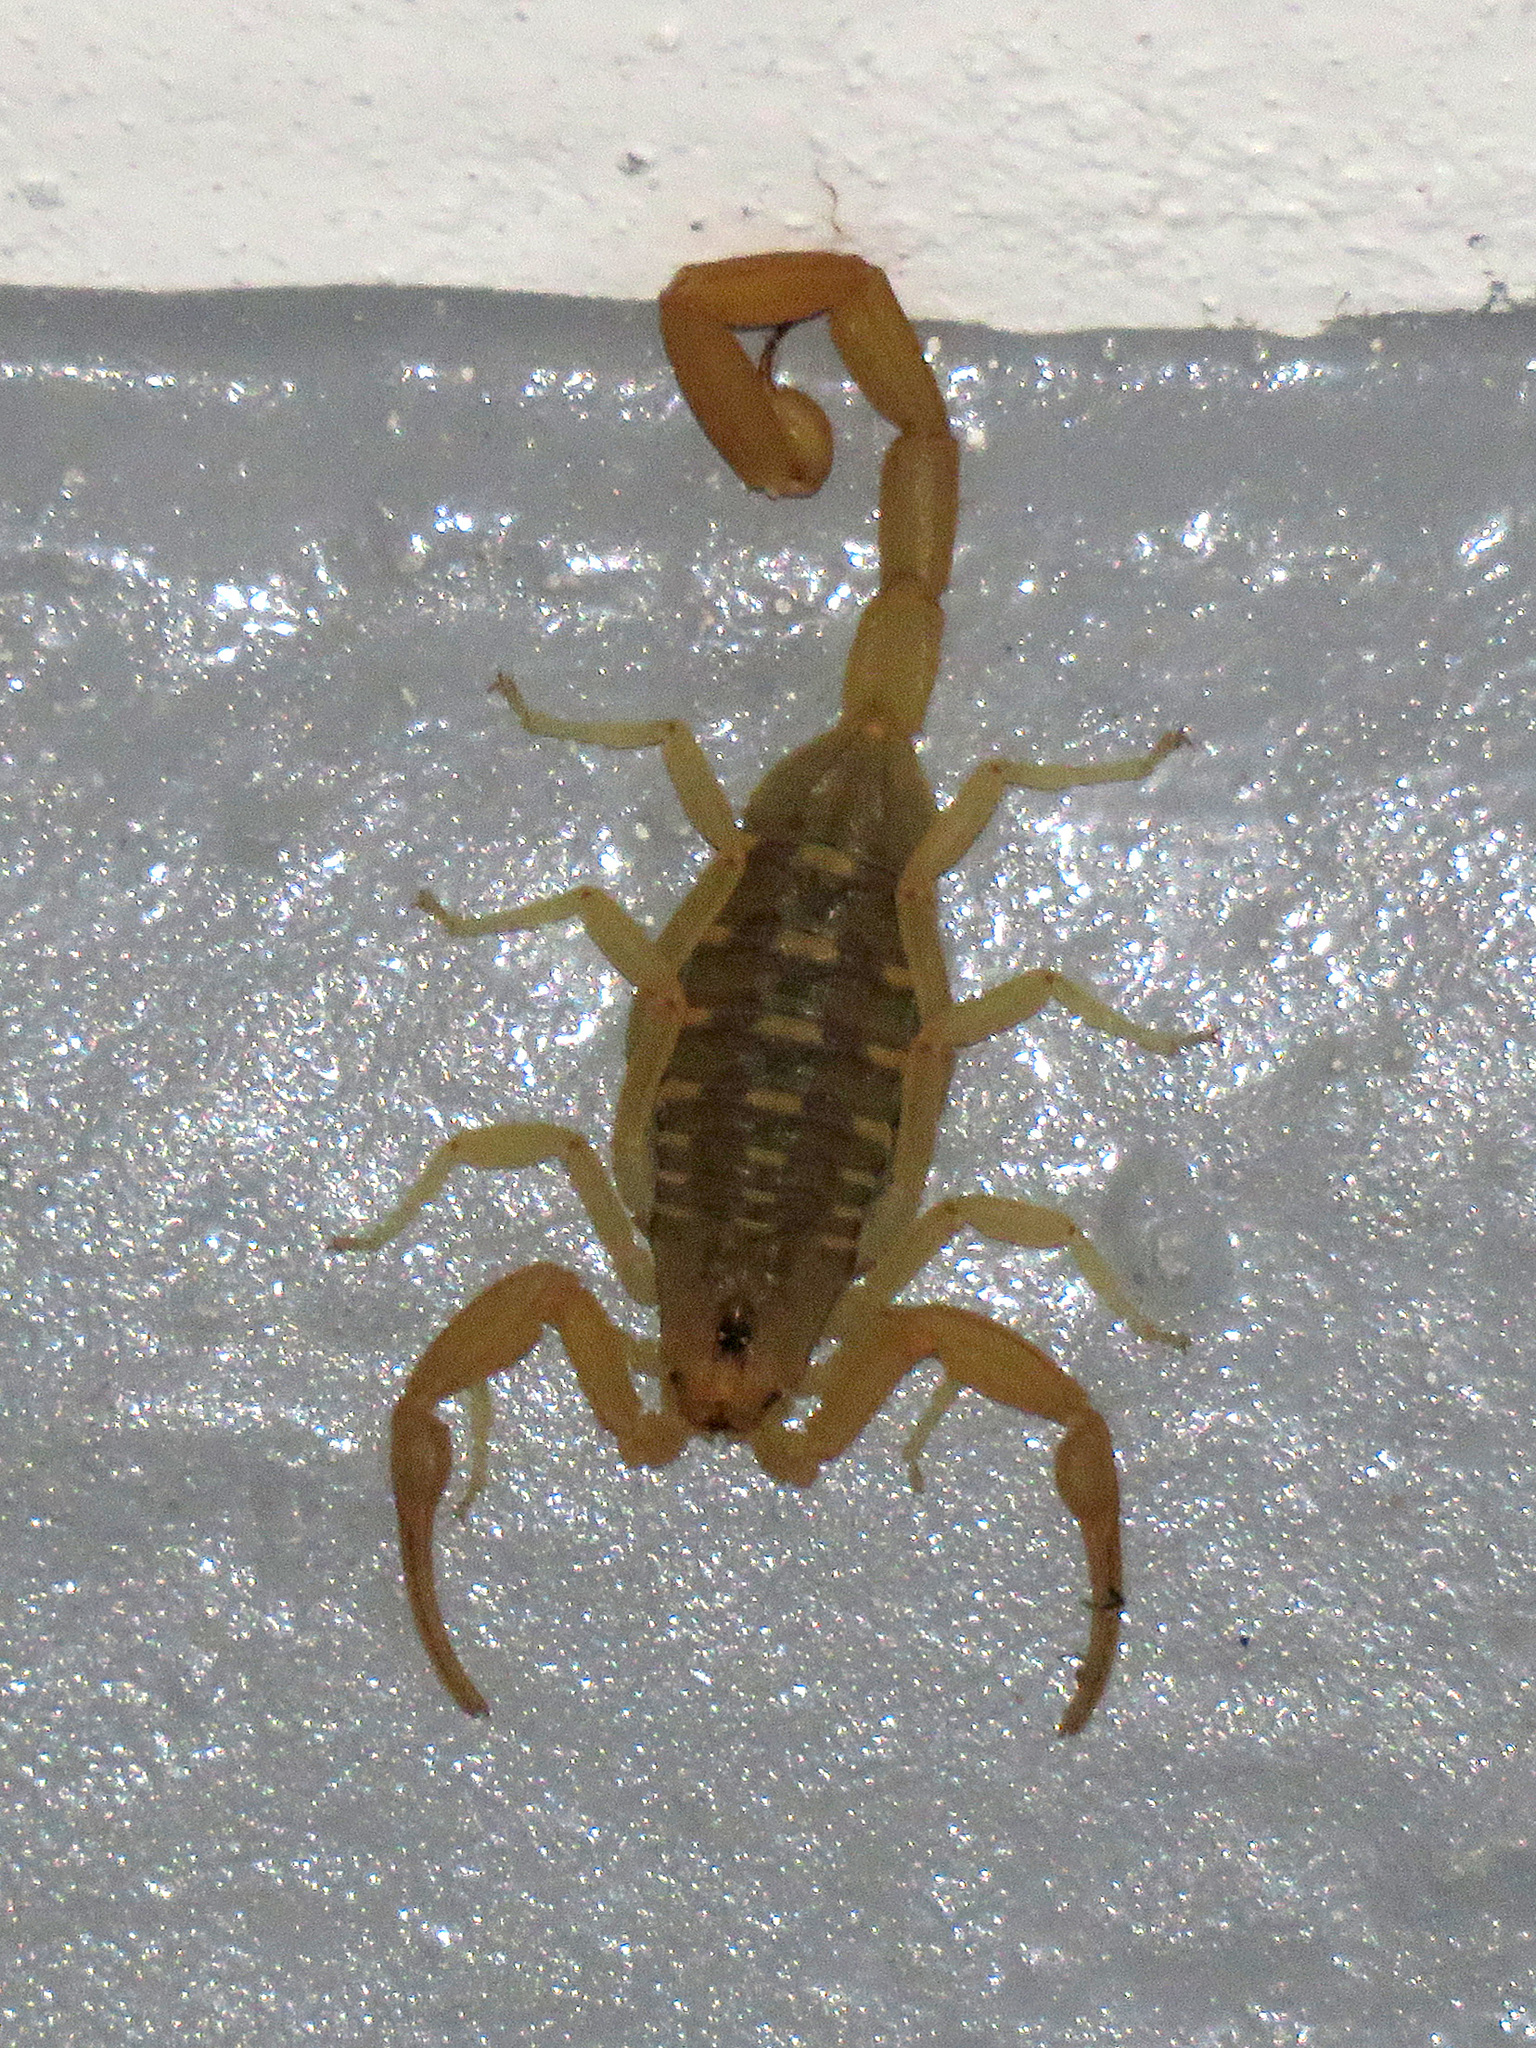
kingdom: Animalia
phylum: Arthropoda
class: Arachnida
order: Scorpiones
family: Buthidae
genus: Centruroides
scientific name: Centruroides sculpturatus
